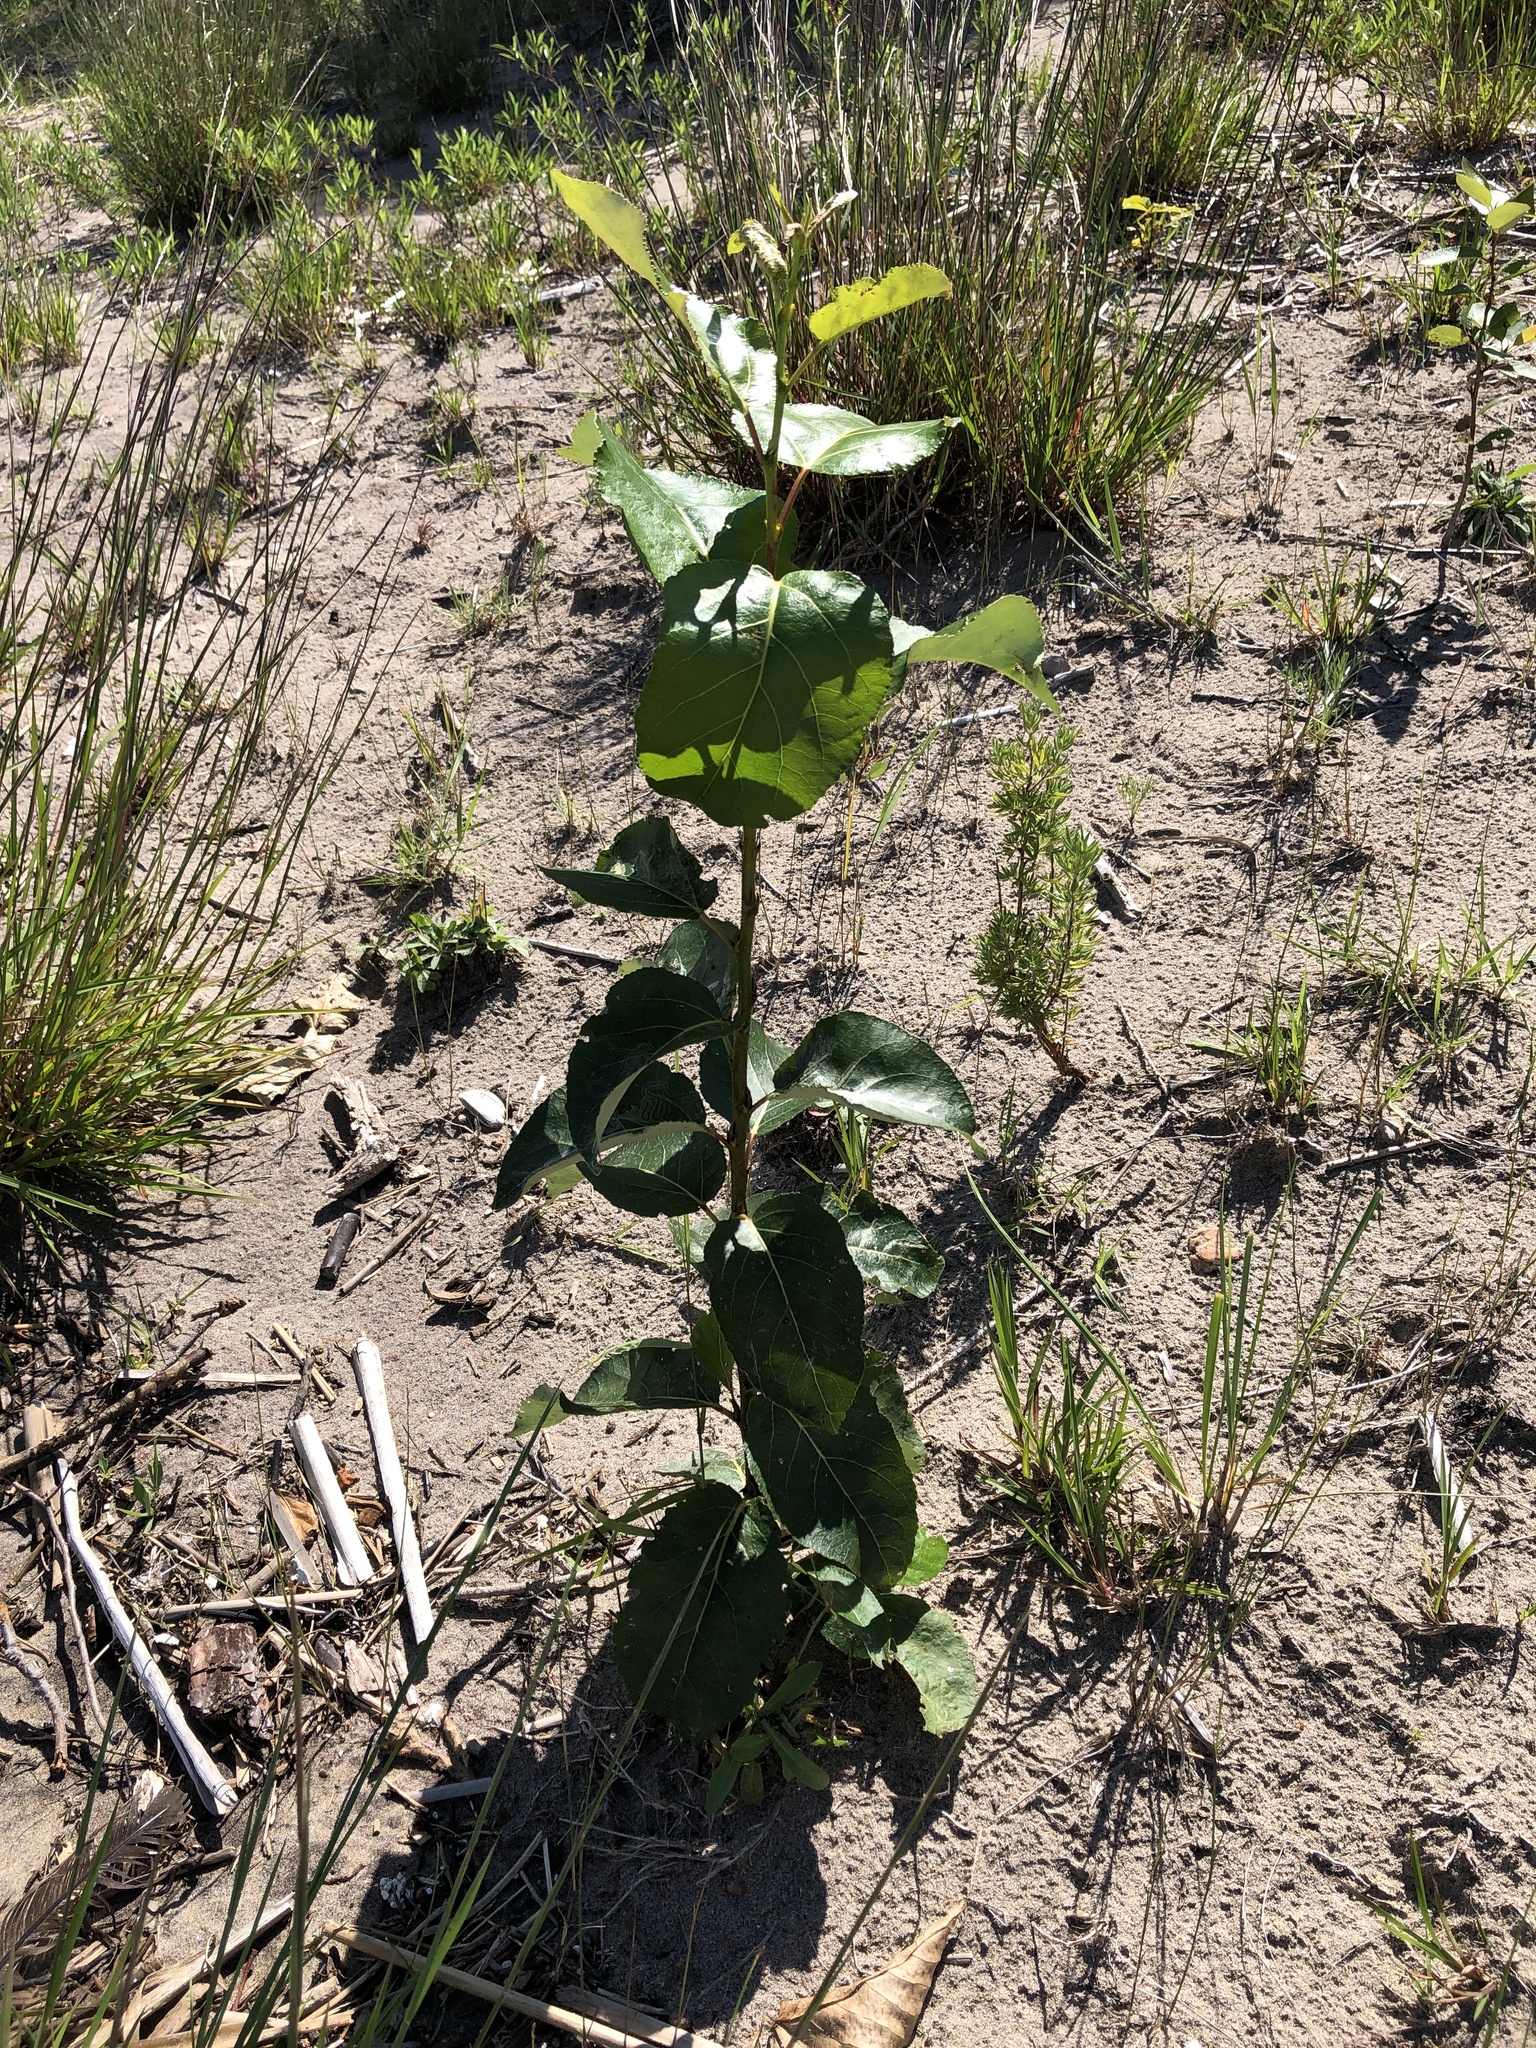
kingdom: Plantae
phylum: Tracheophyta
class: Magnoliopsida
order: Malpighiales
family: Salicaceae
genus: Populus
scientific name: Populus balsamifera
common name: Balsam poplar
